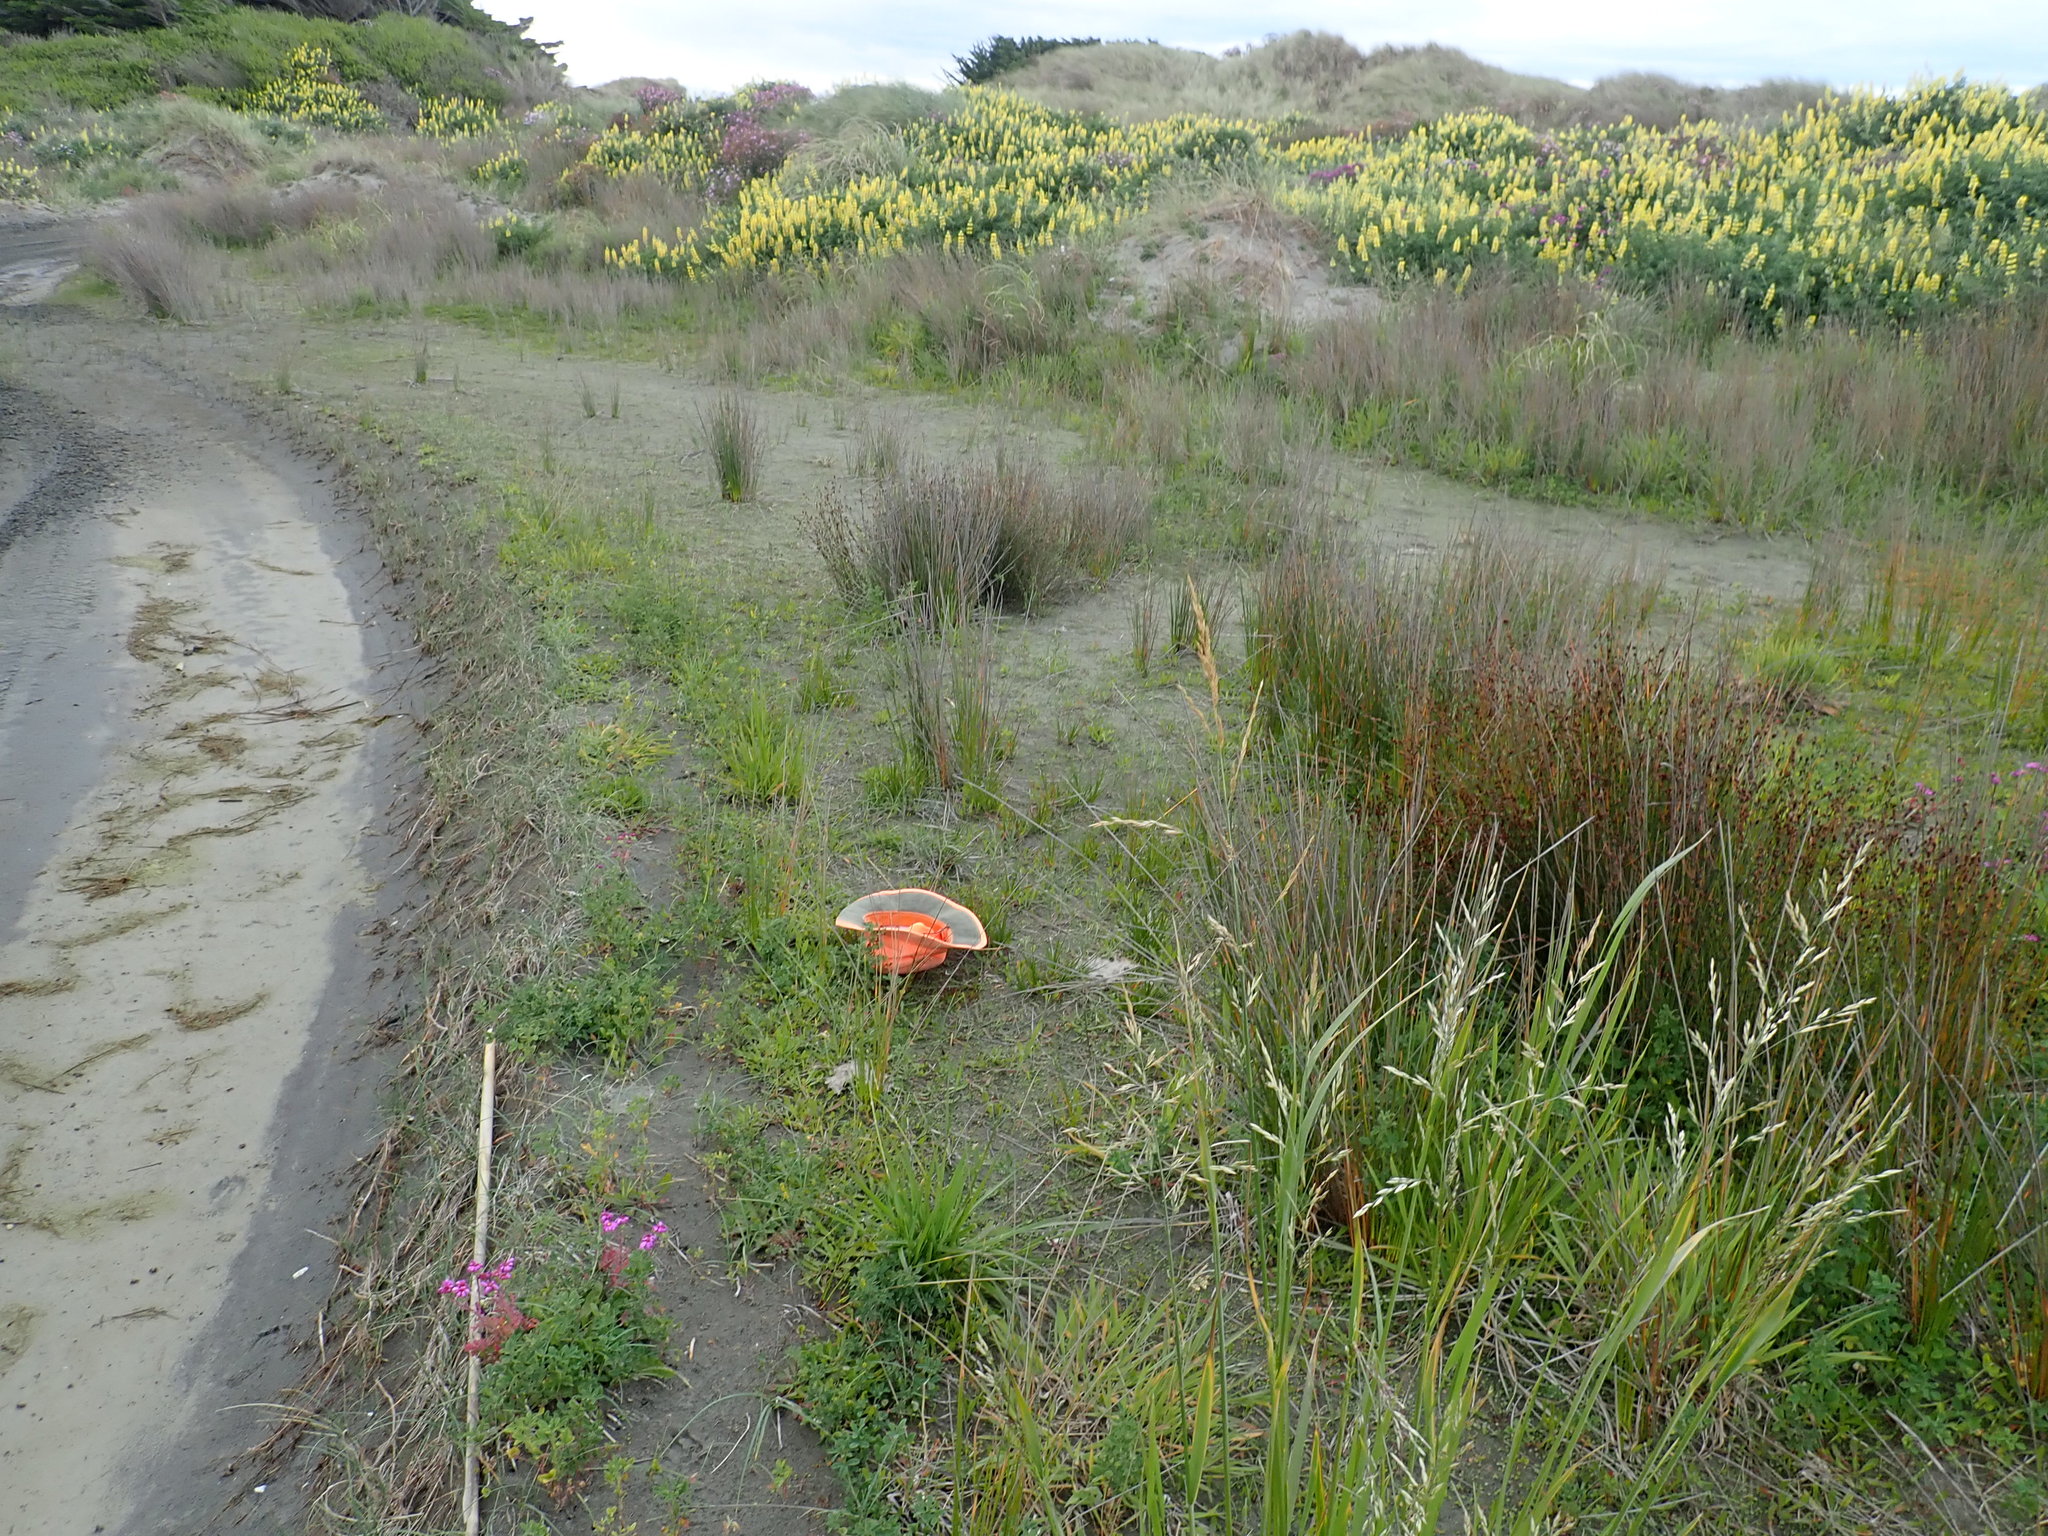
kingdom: Plantae
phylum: Tracheophyta
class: Liliopsida
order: Poales
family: Juncaceae
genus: Juncus
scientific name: Juncus caespiticius
